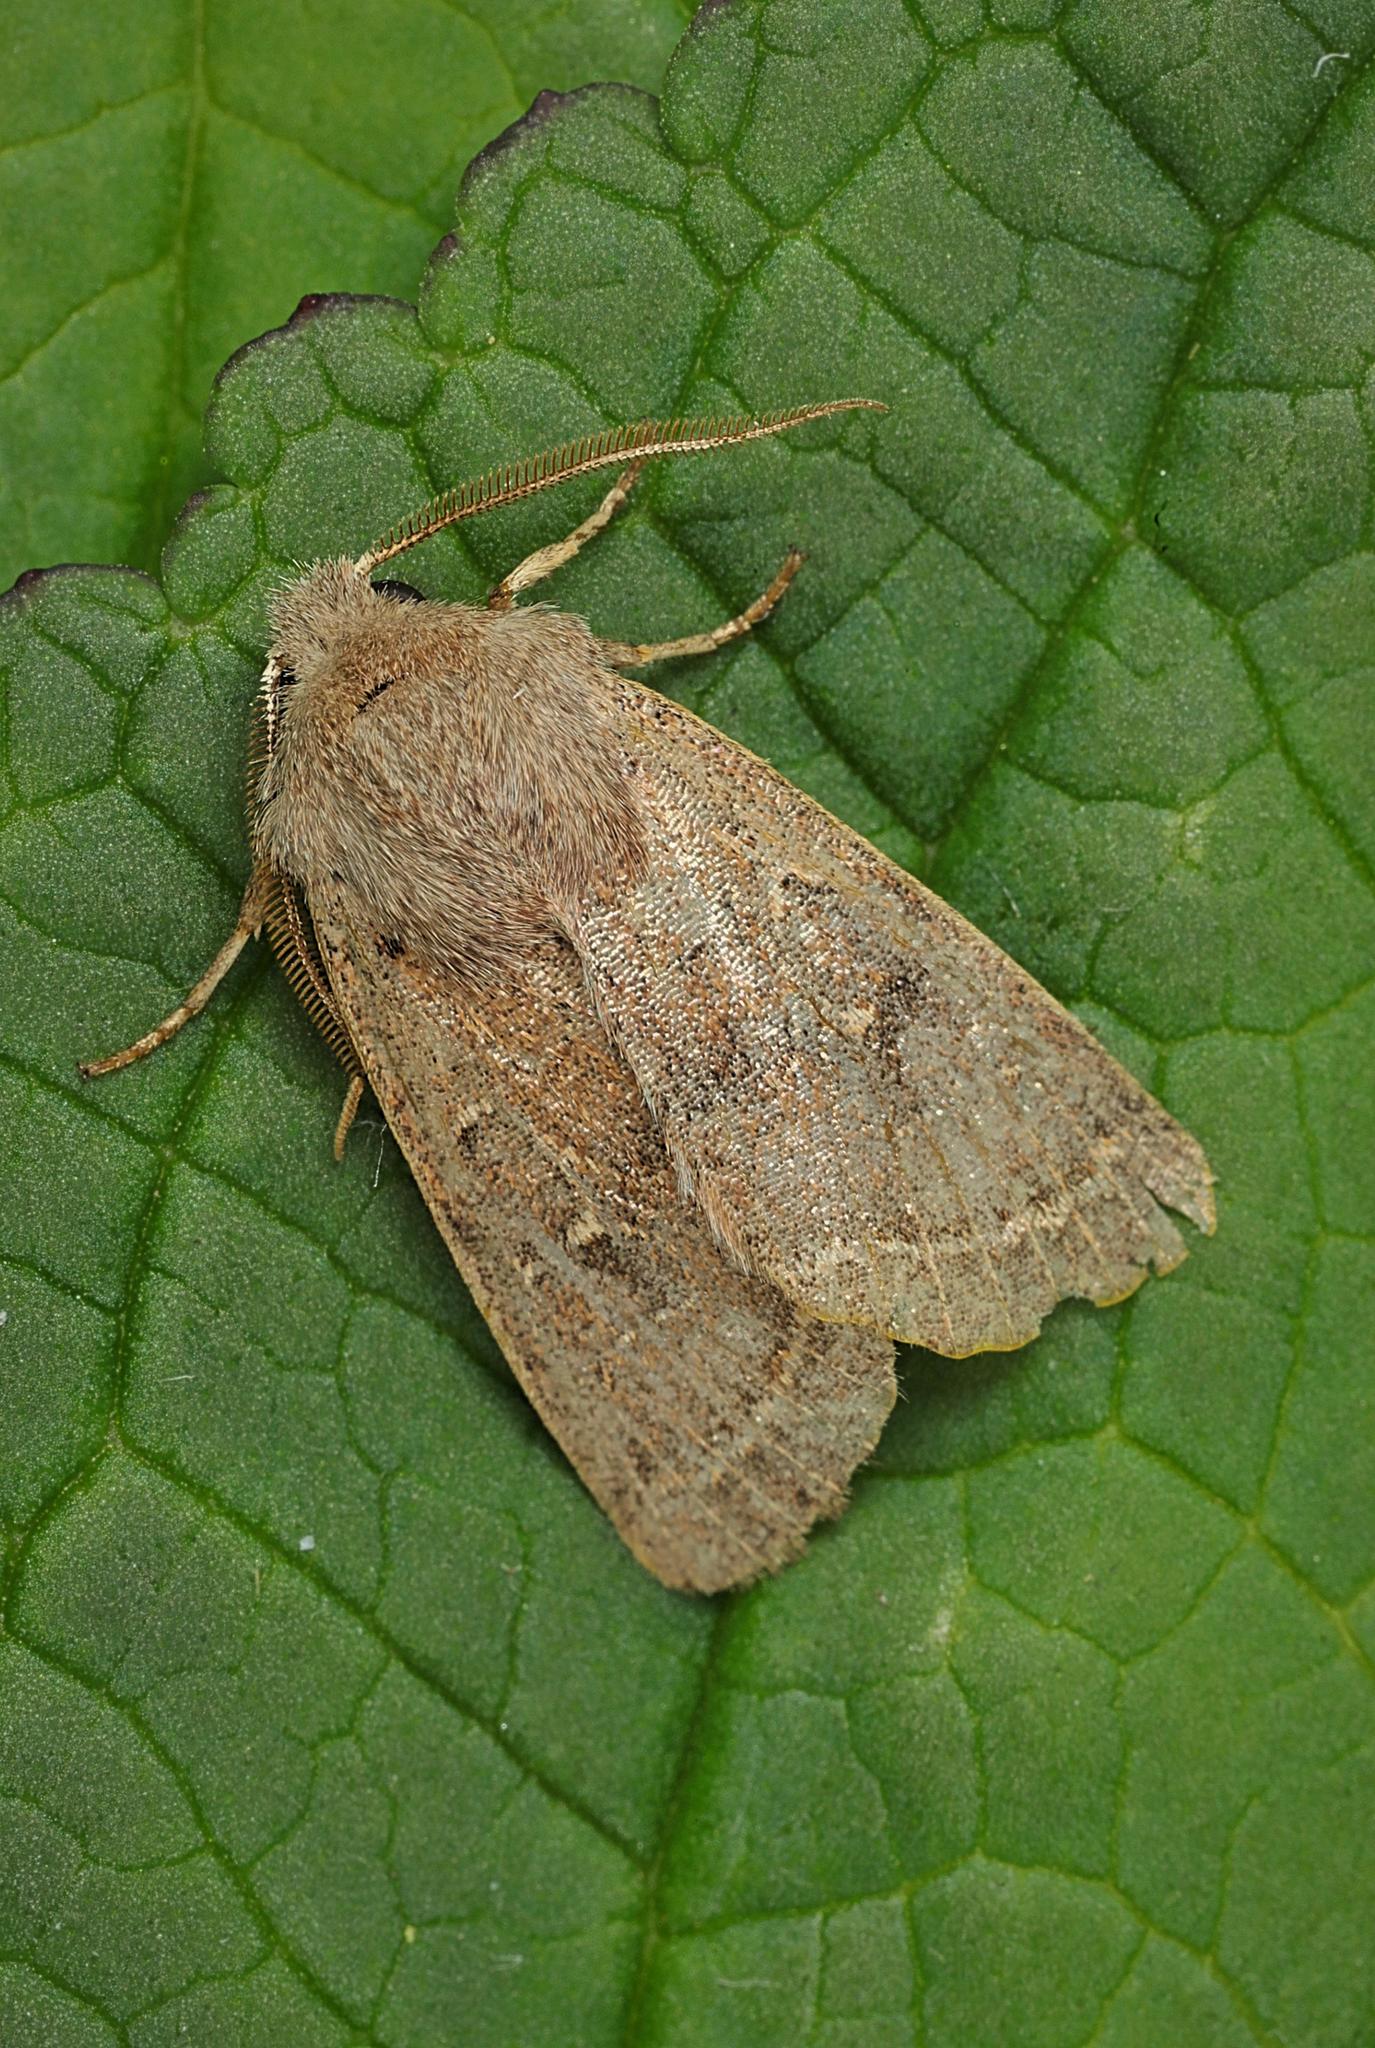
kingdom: Animalia
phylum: Arthropoda
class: Insecta
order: Lepidoptera
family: Noctuidae
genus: Orthosia
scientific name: Orthosia cerasi
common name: Common quaker
